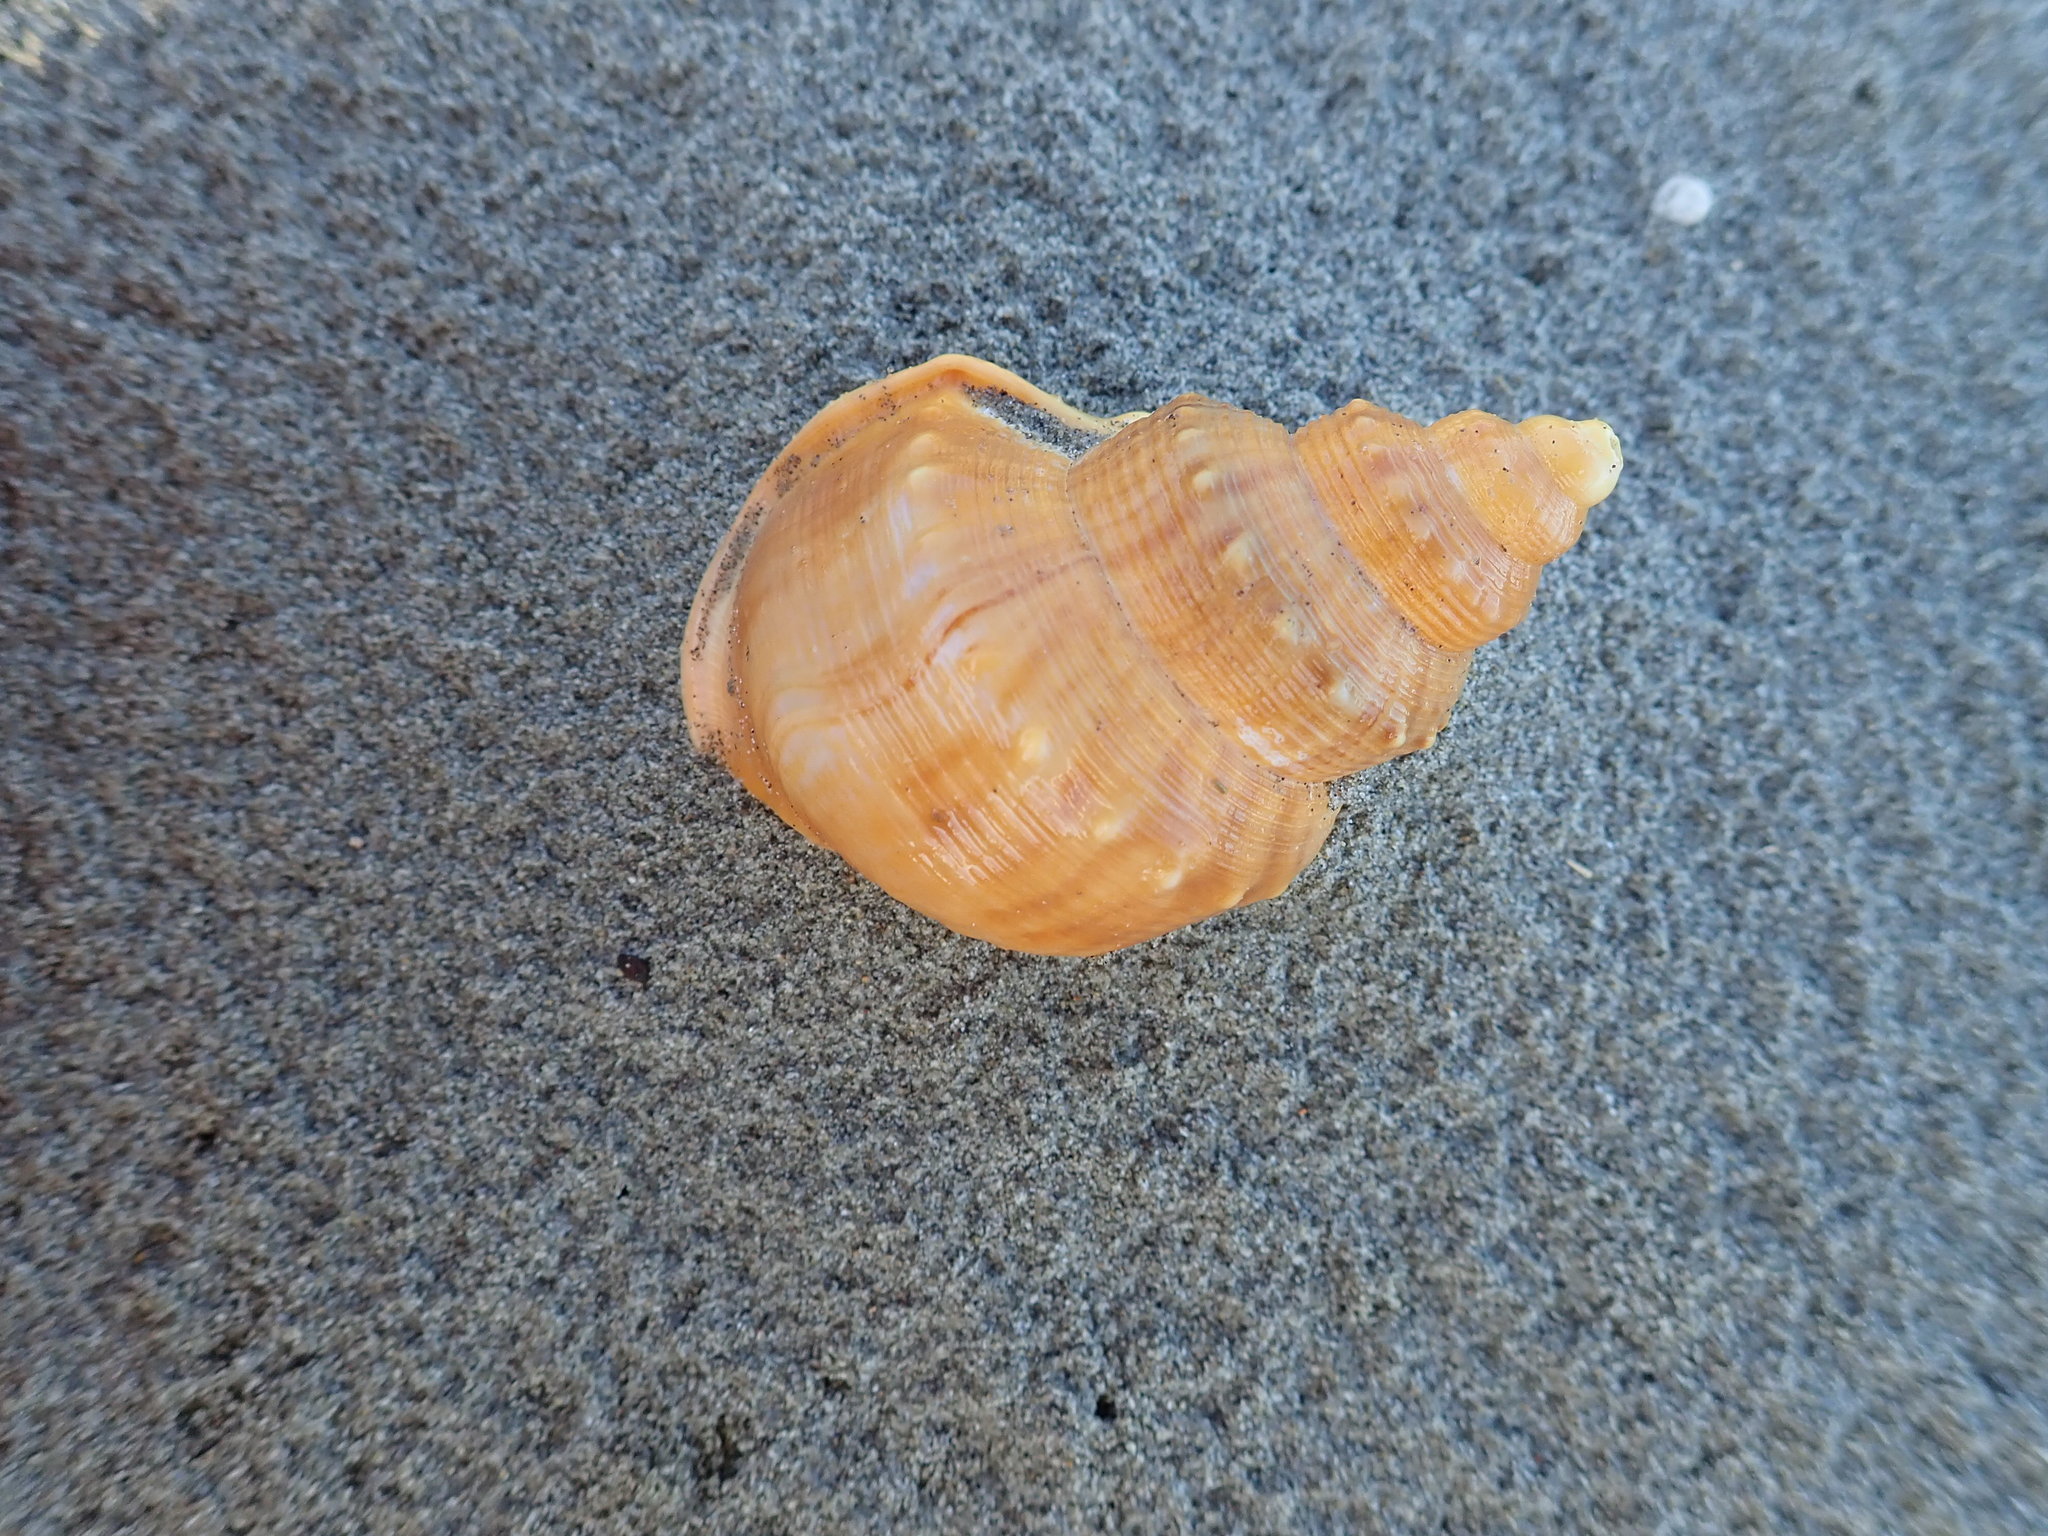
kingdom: Animalia
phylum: Mollusca
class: Gastropoda
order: Littorinimorpha
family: Struthiolariidae
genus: Struthiolaria
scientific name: Struthiolaria papulosa
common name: Large ostrich foot
